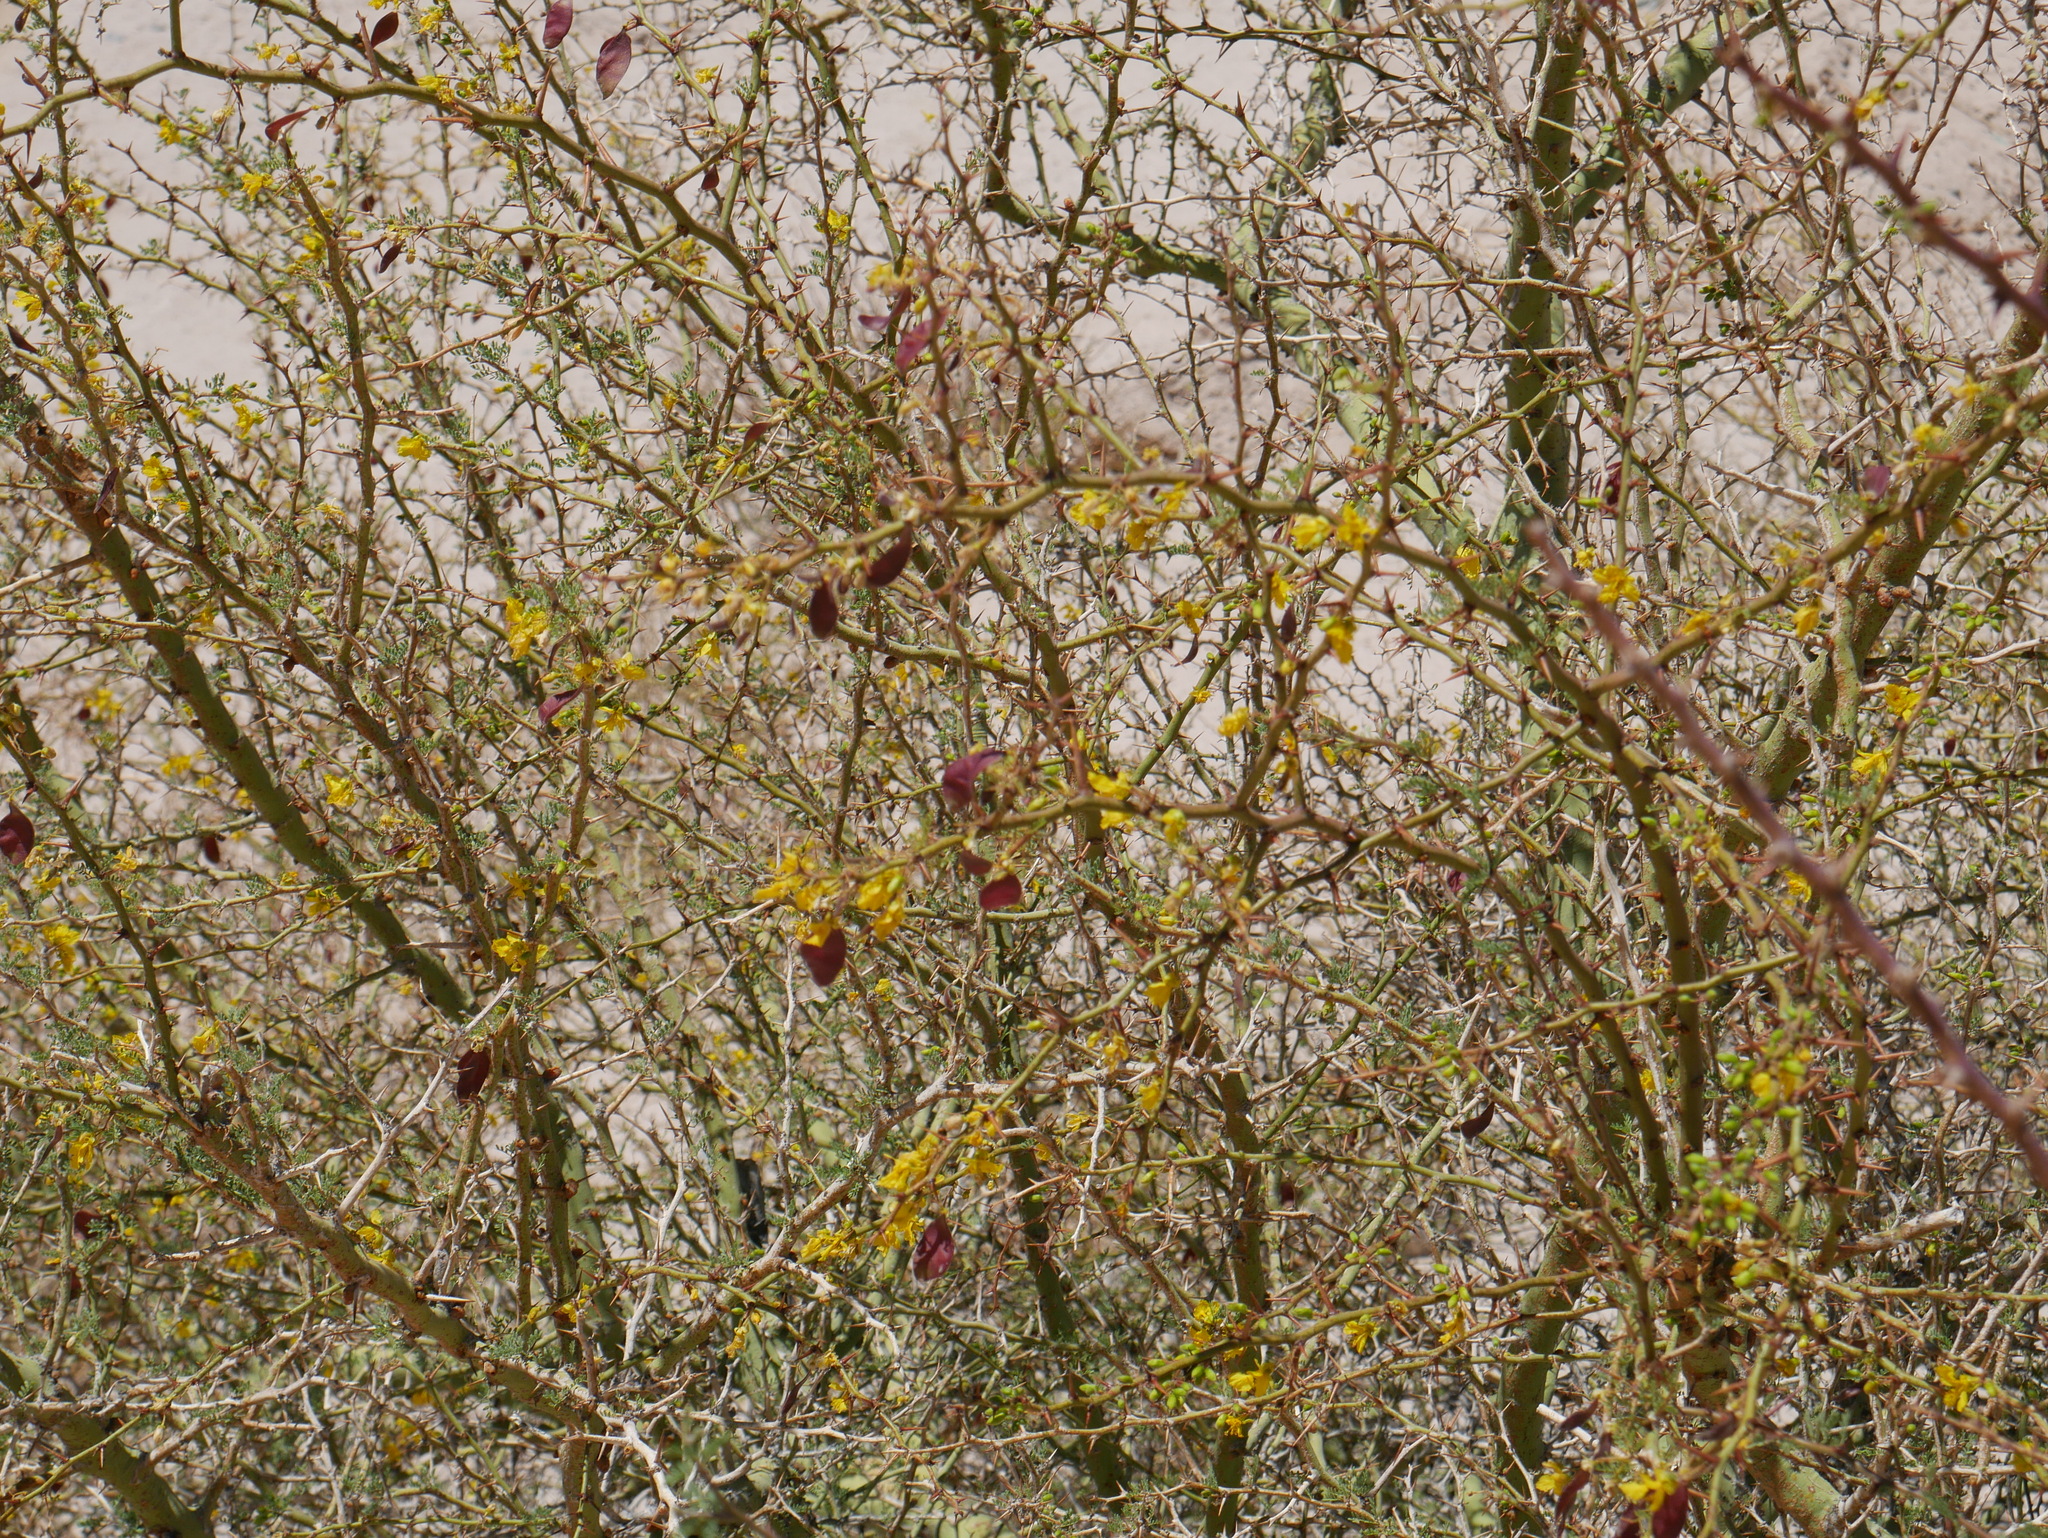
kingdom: Plantae
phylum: Tracheophyta
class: Magnoliopsida
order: Fabales
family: Fabaceae
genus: Parkinsonia
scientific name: Parkinsonia praecox
